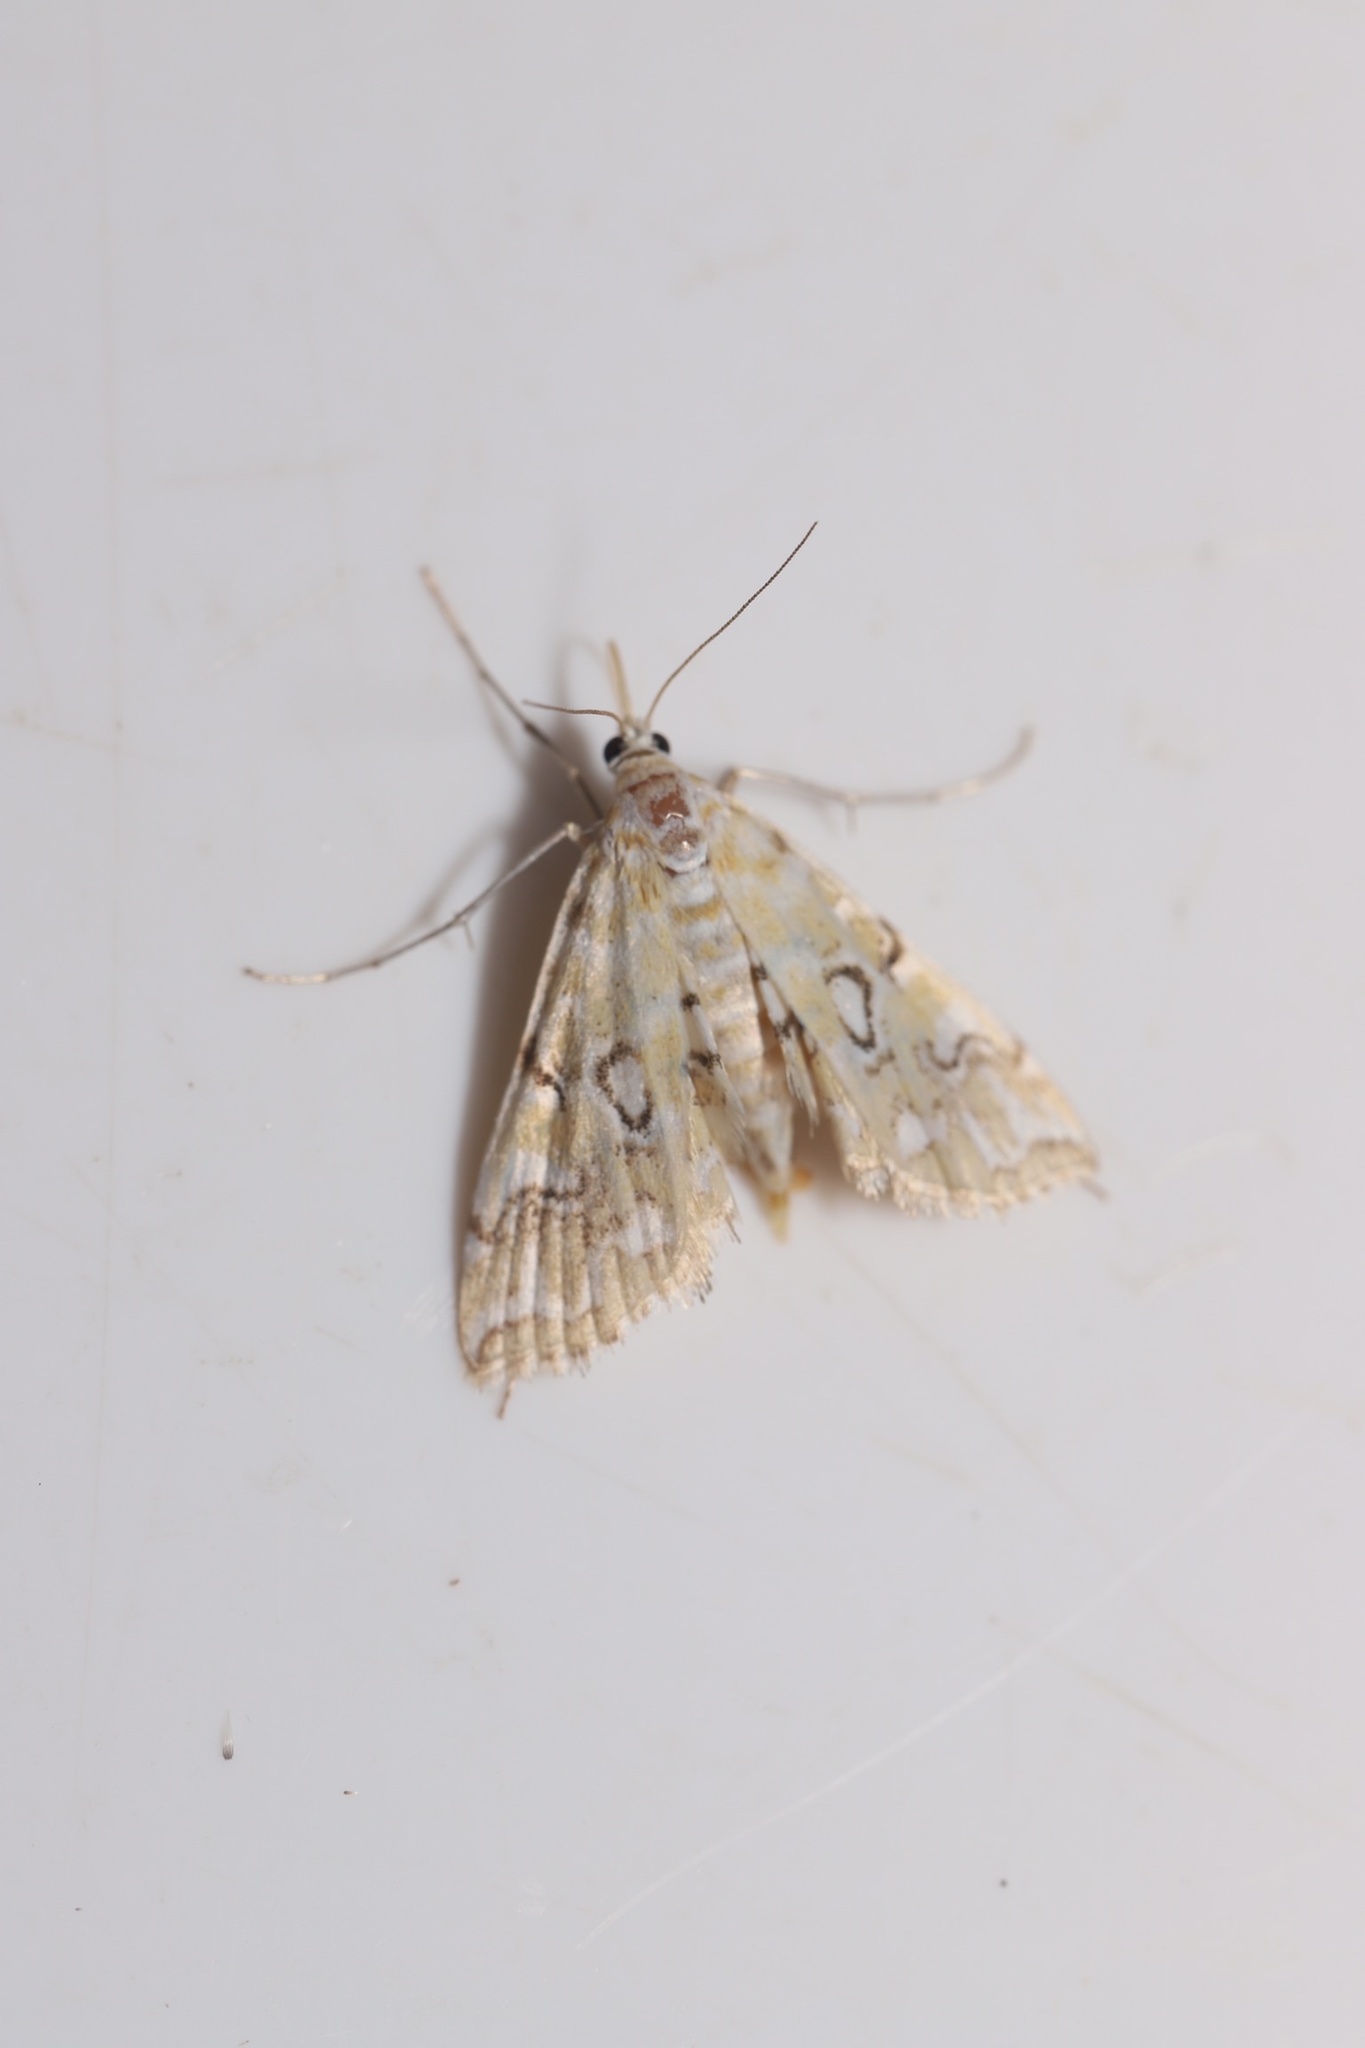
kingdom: Animalia
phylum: Arthropoda
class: Insecta
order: Lepidoptera
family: Crambidae
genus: Elophila
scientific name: Elophila icciusalis
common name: Pondside pyralid moth
